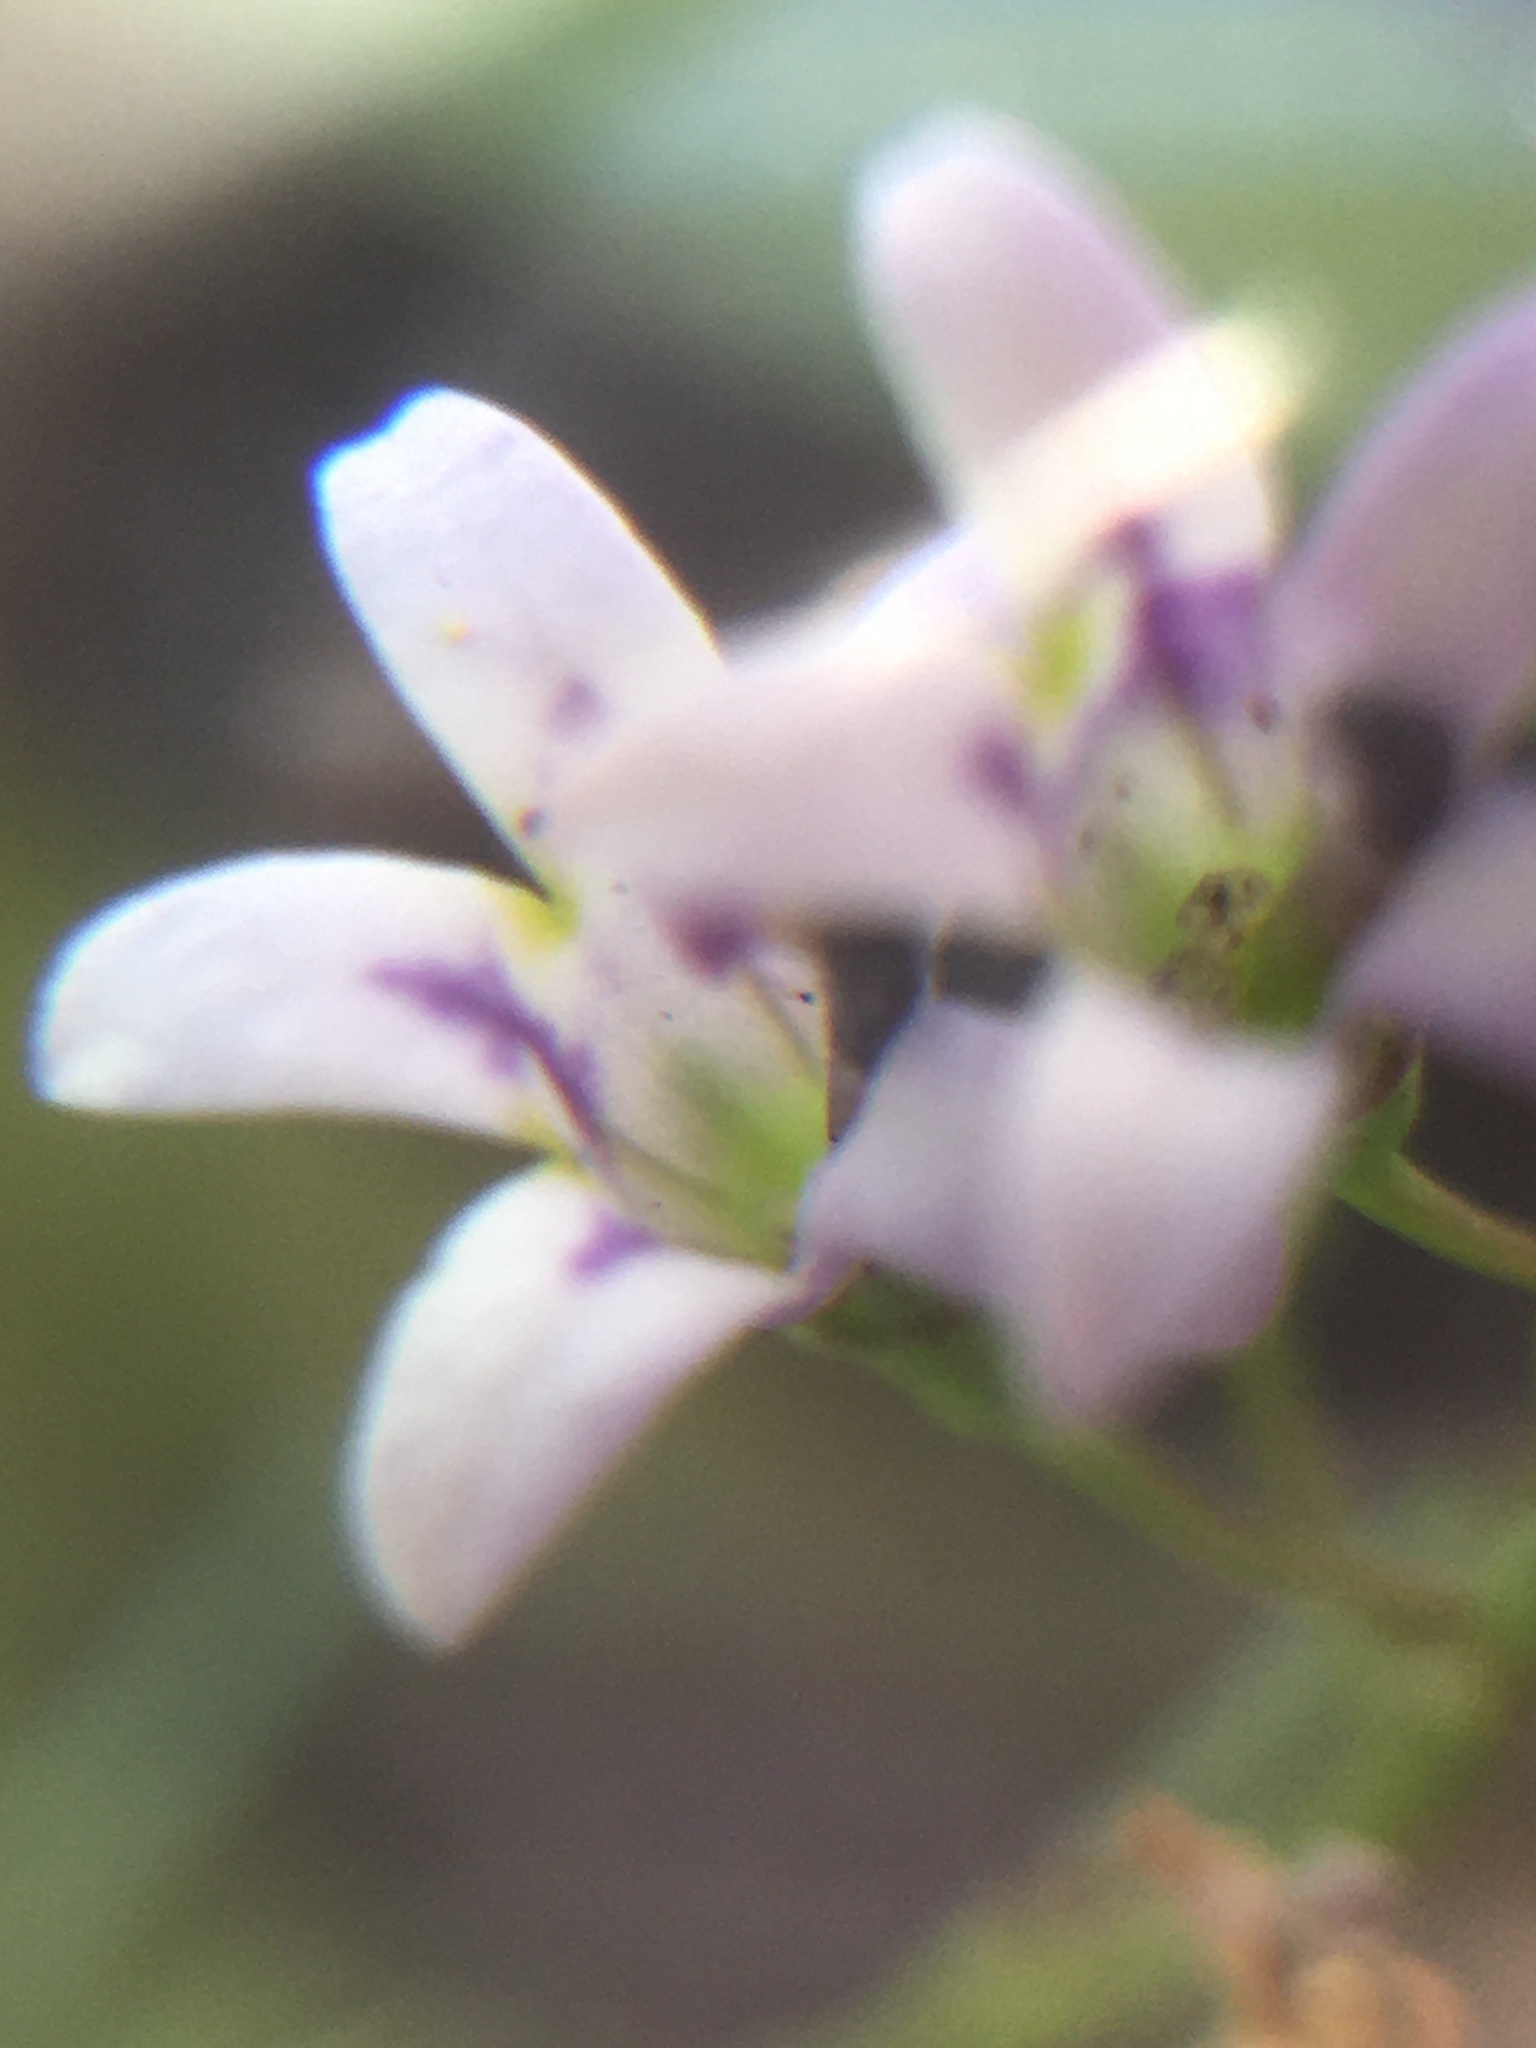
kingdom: Plantae
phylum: Tracheophyta
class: Magnoliopsida
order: Asterales
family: Campanulaceae
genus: Wimmerella
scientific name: Wimmerella secunda
